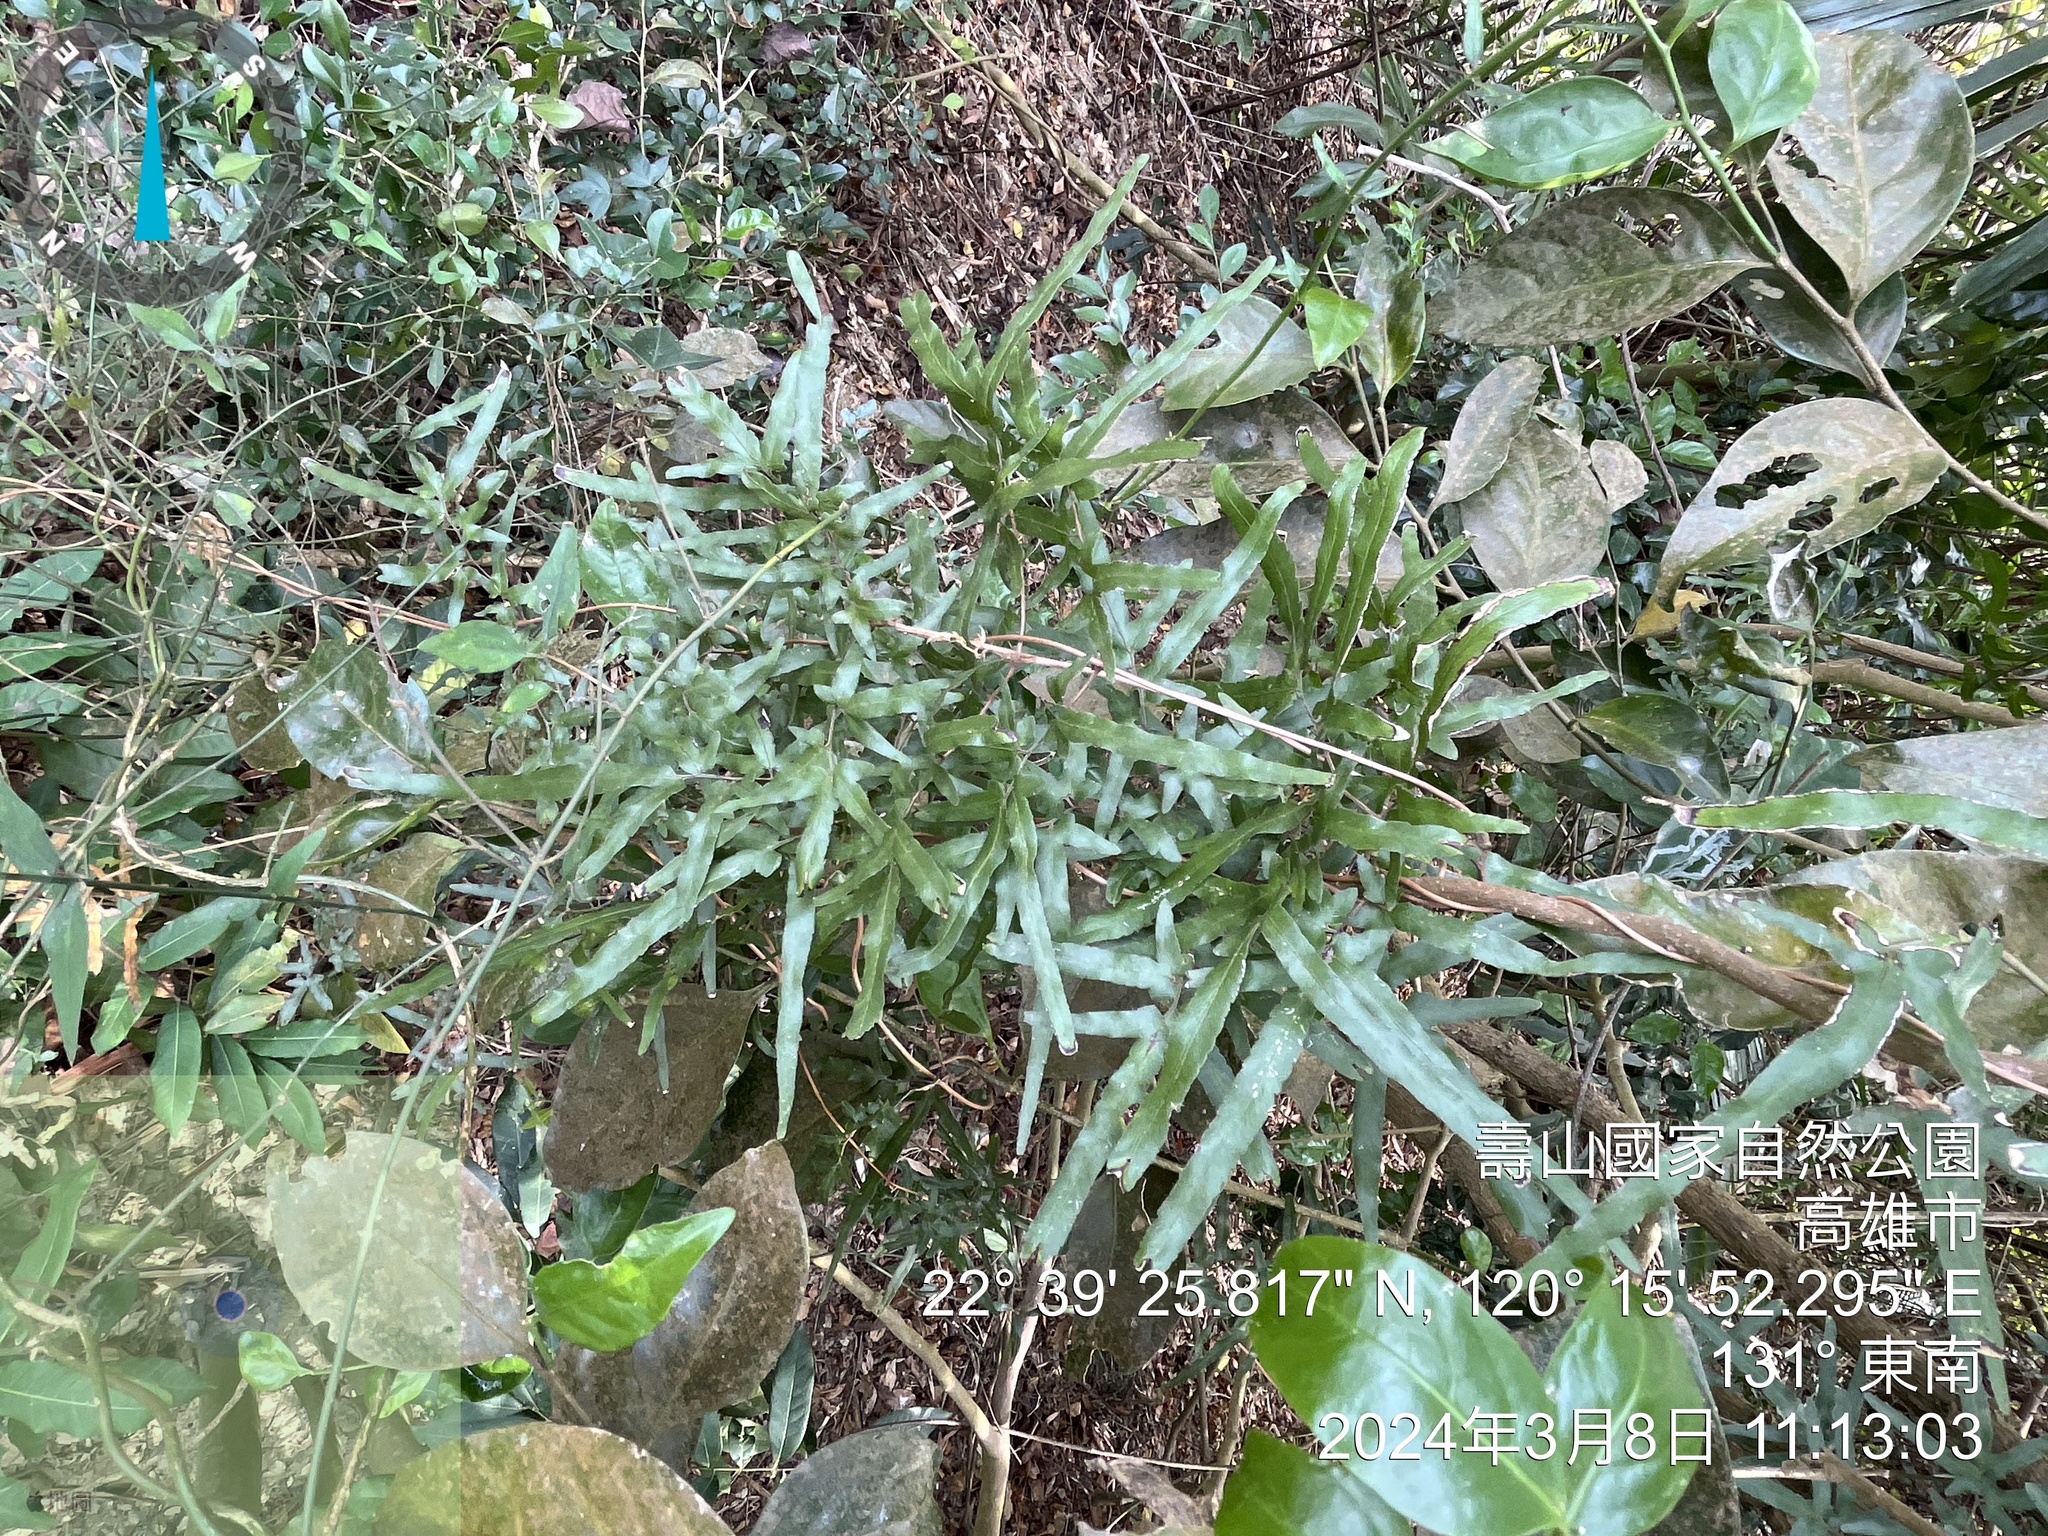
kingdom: Plantae
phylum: Tracheophyta
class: Polypodiopsida
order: Schizaeales
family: Lygodiaceae
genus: Lygodium
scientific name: Lygodium japonicum
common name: Japanese climbing fern
